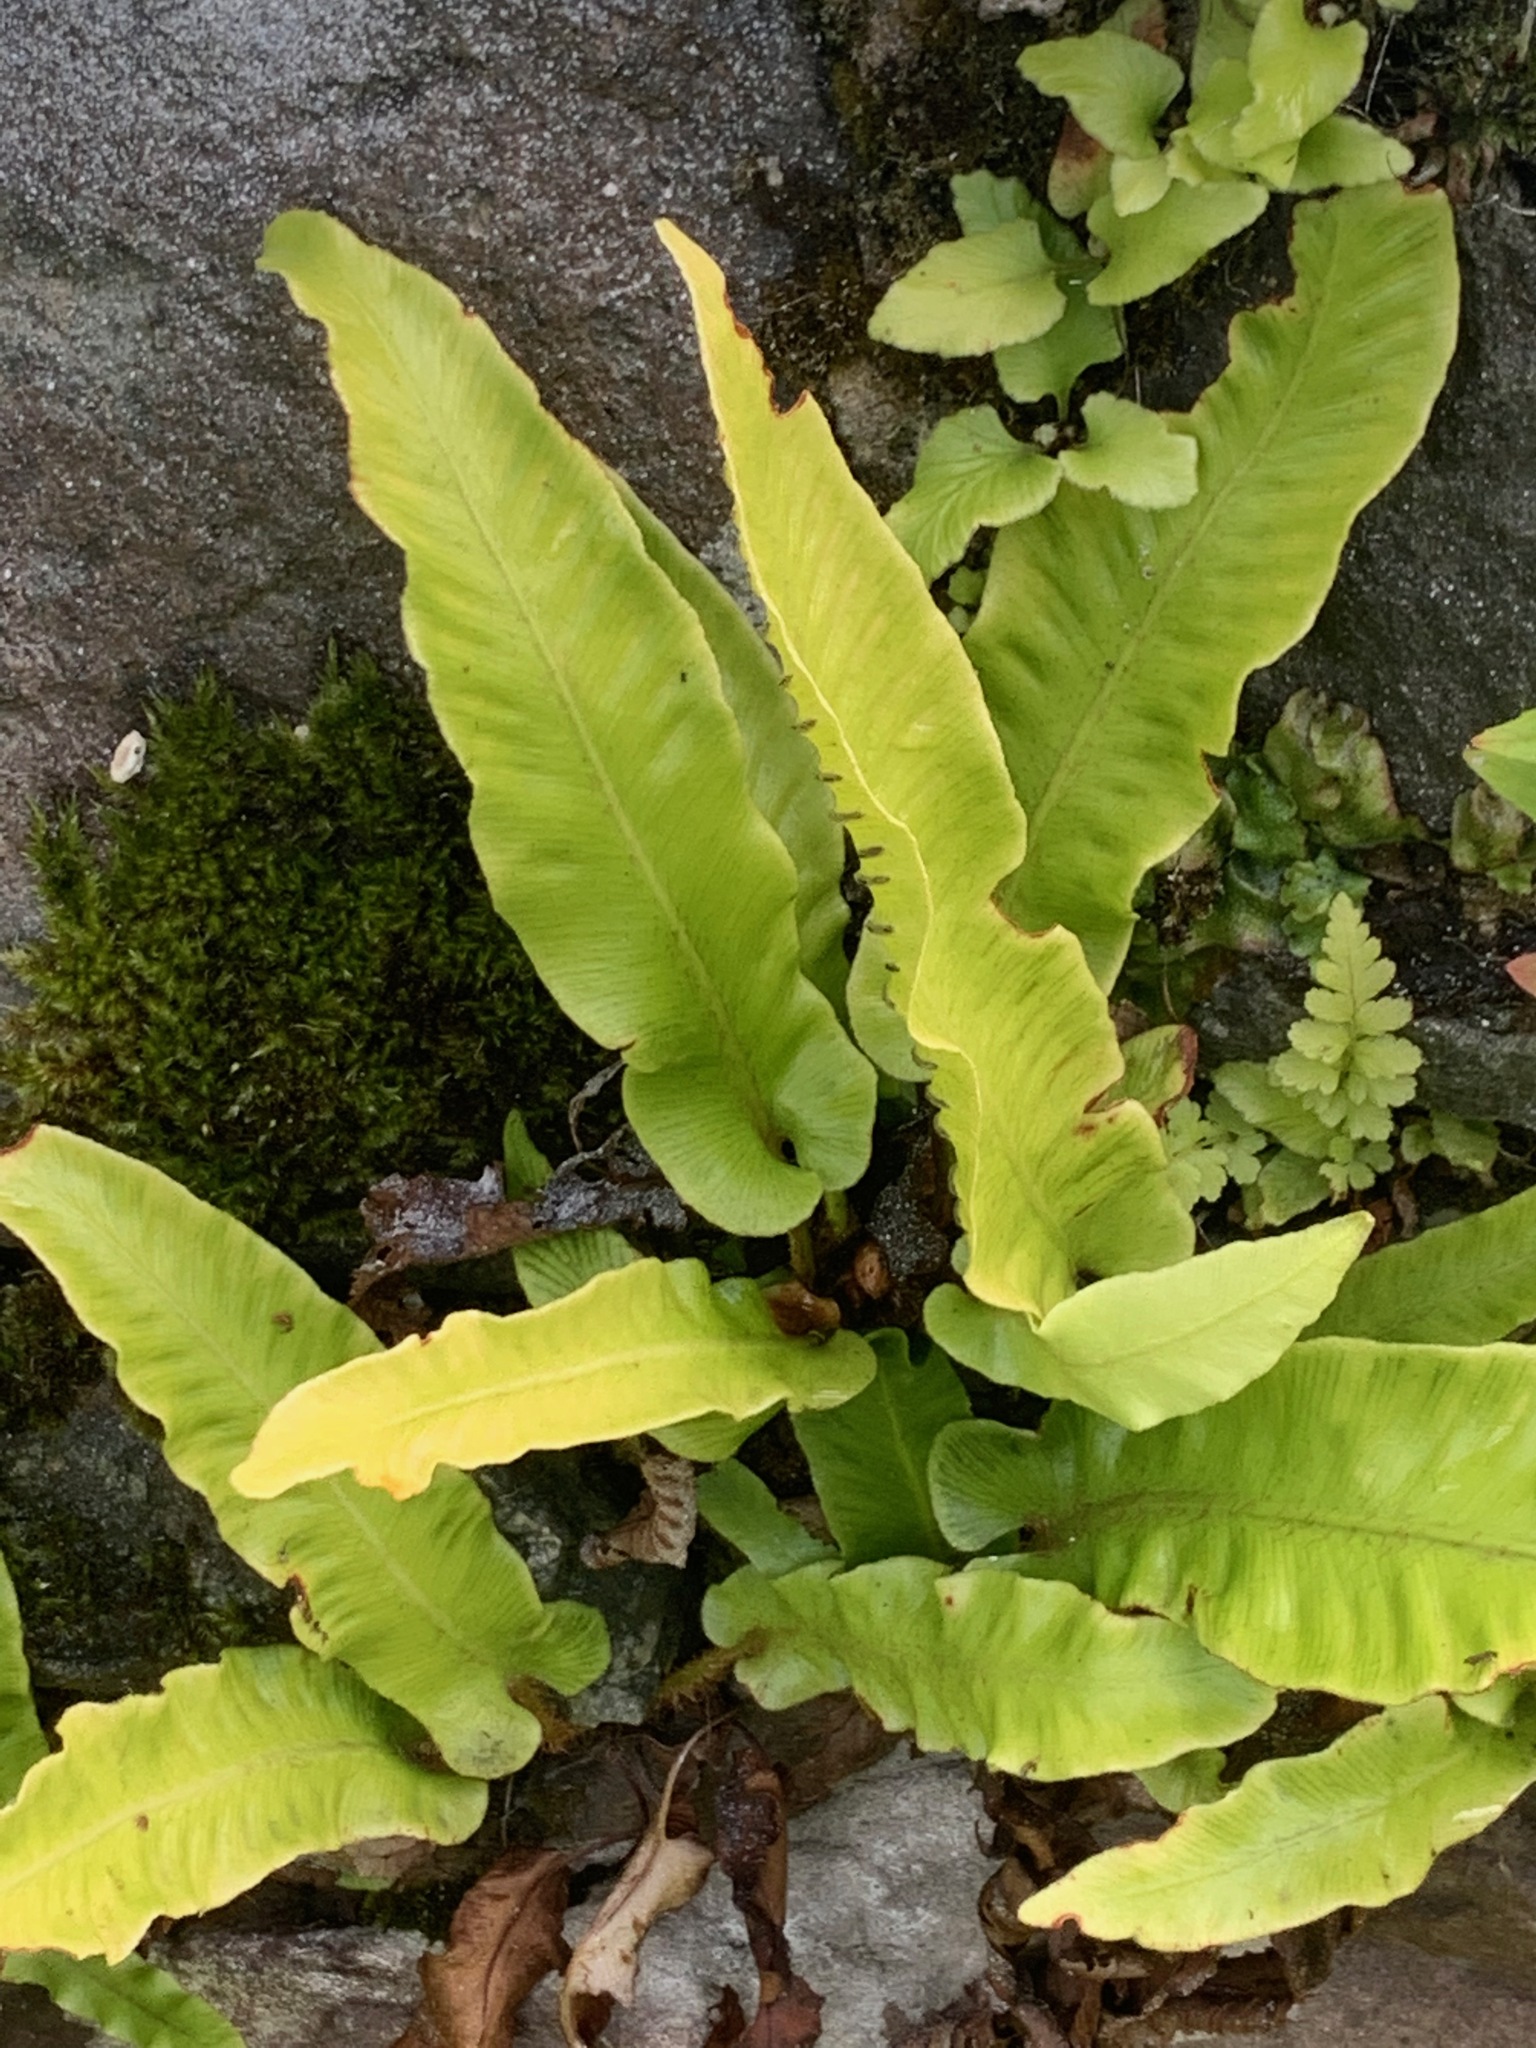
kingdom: Plantae
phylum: Tracheophyta
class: Polypodiopsida
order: Polypodiales
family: Aspleniaceae
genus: Asplenium
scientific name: Asplenium scolopendrium
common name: Hart's-tongue fern
